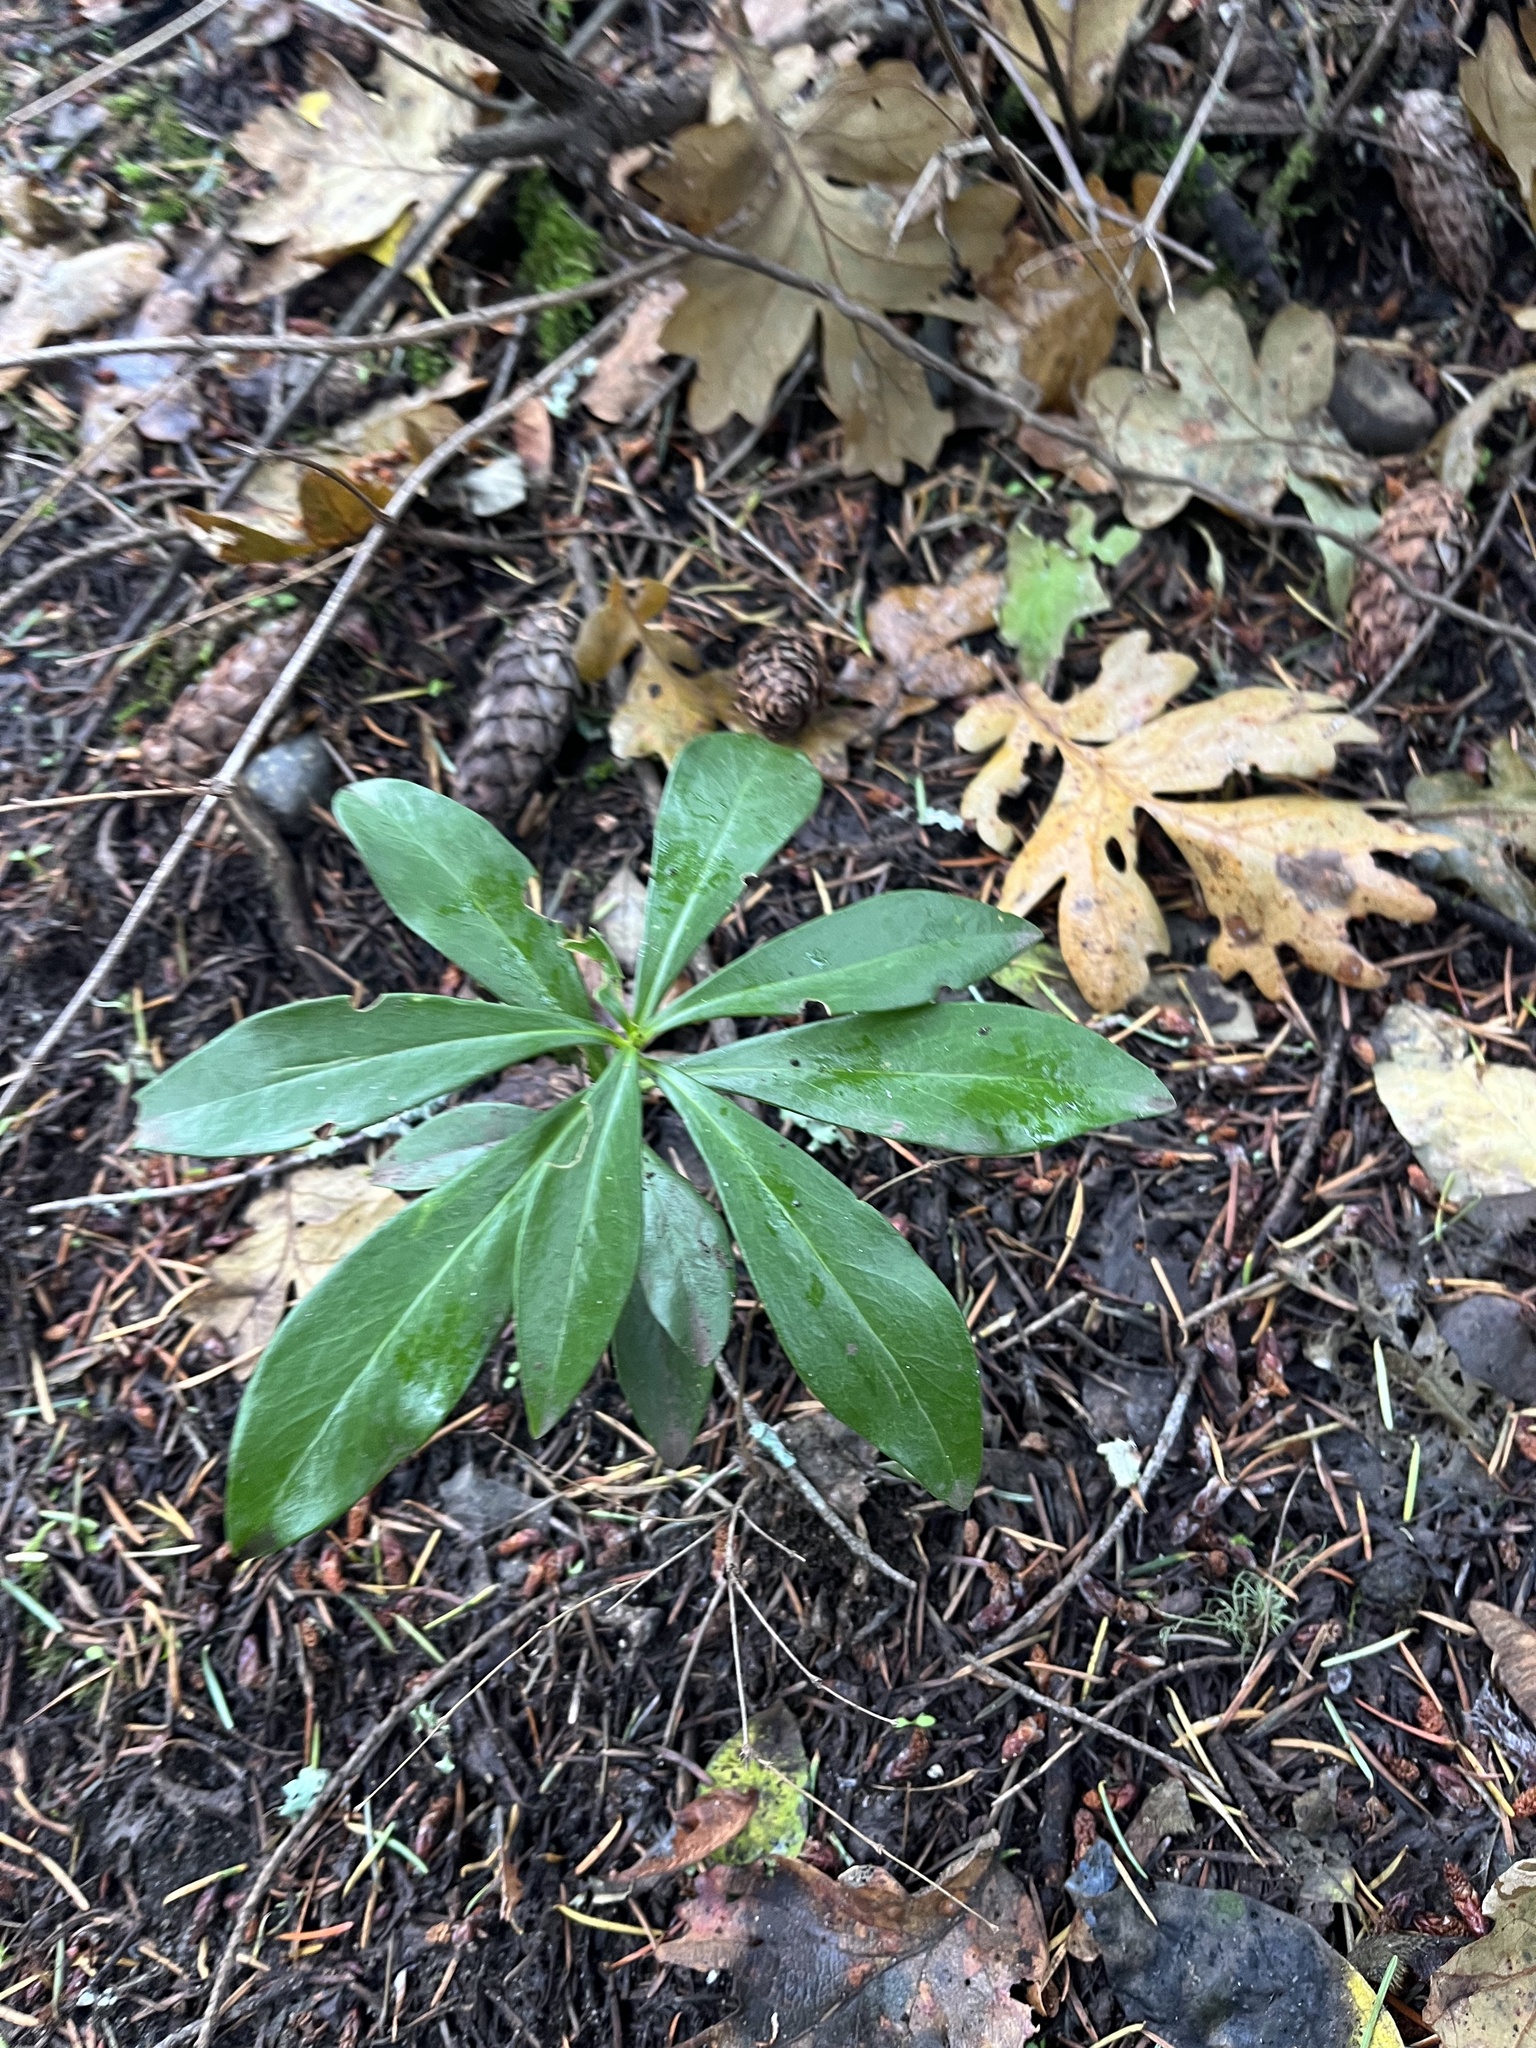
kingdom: Plantae
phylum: Tracheophyta
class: Magnoliopsida
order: Malvales
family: Thymelaeaceae
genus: Daphne
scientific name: Daphne laureola
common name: Spurge-laurel
